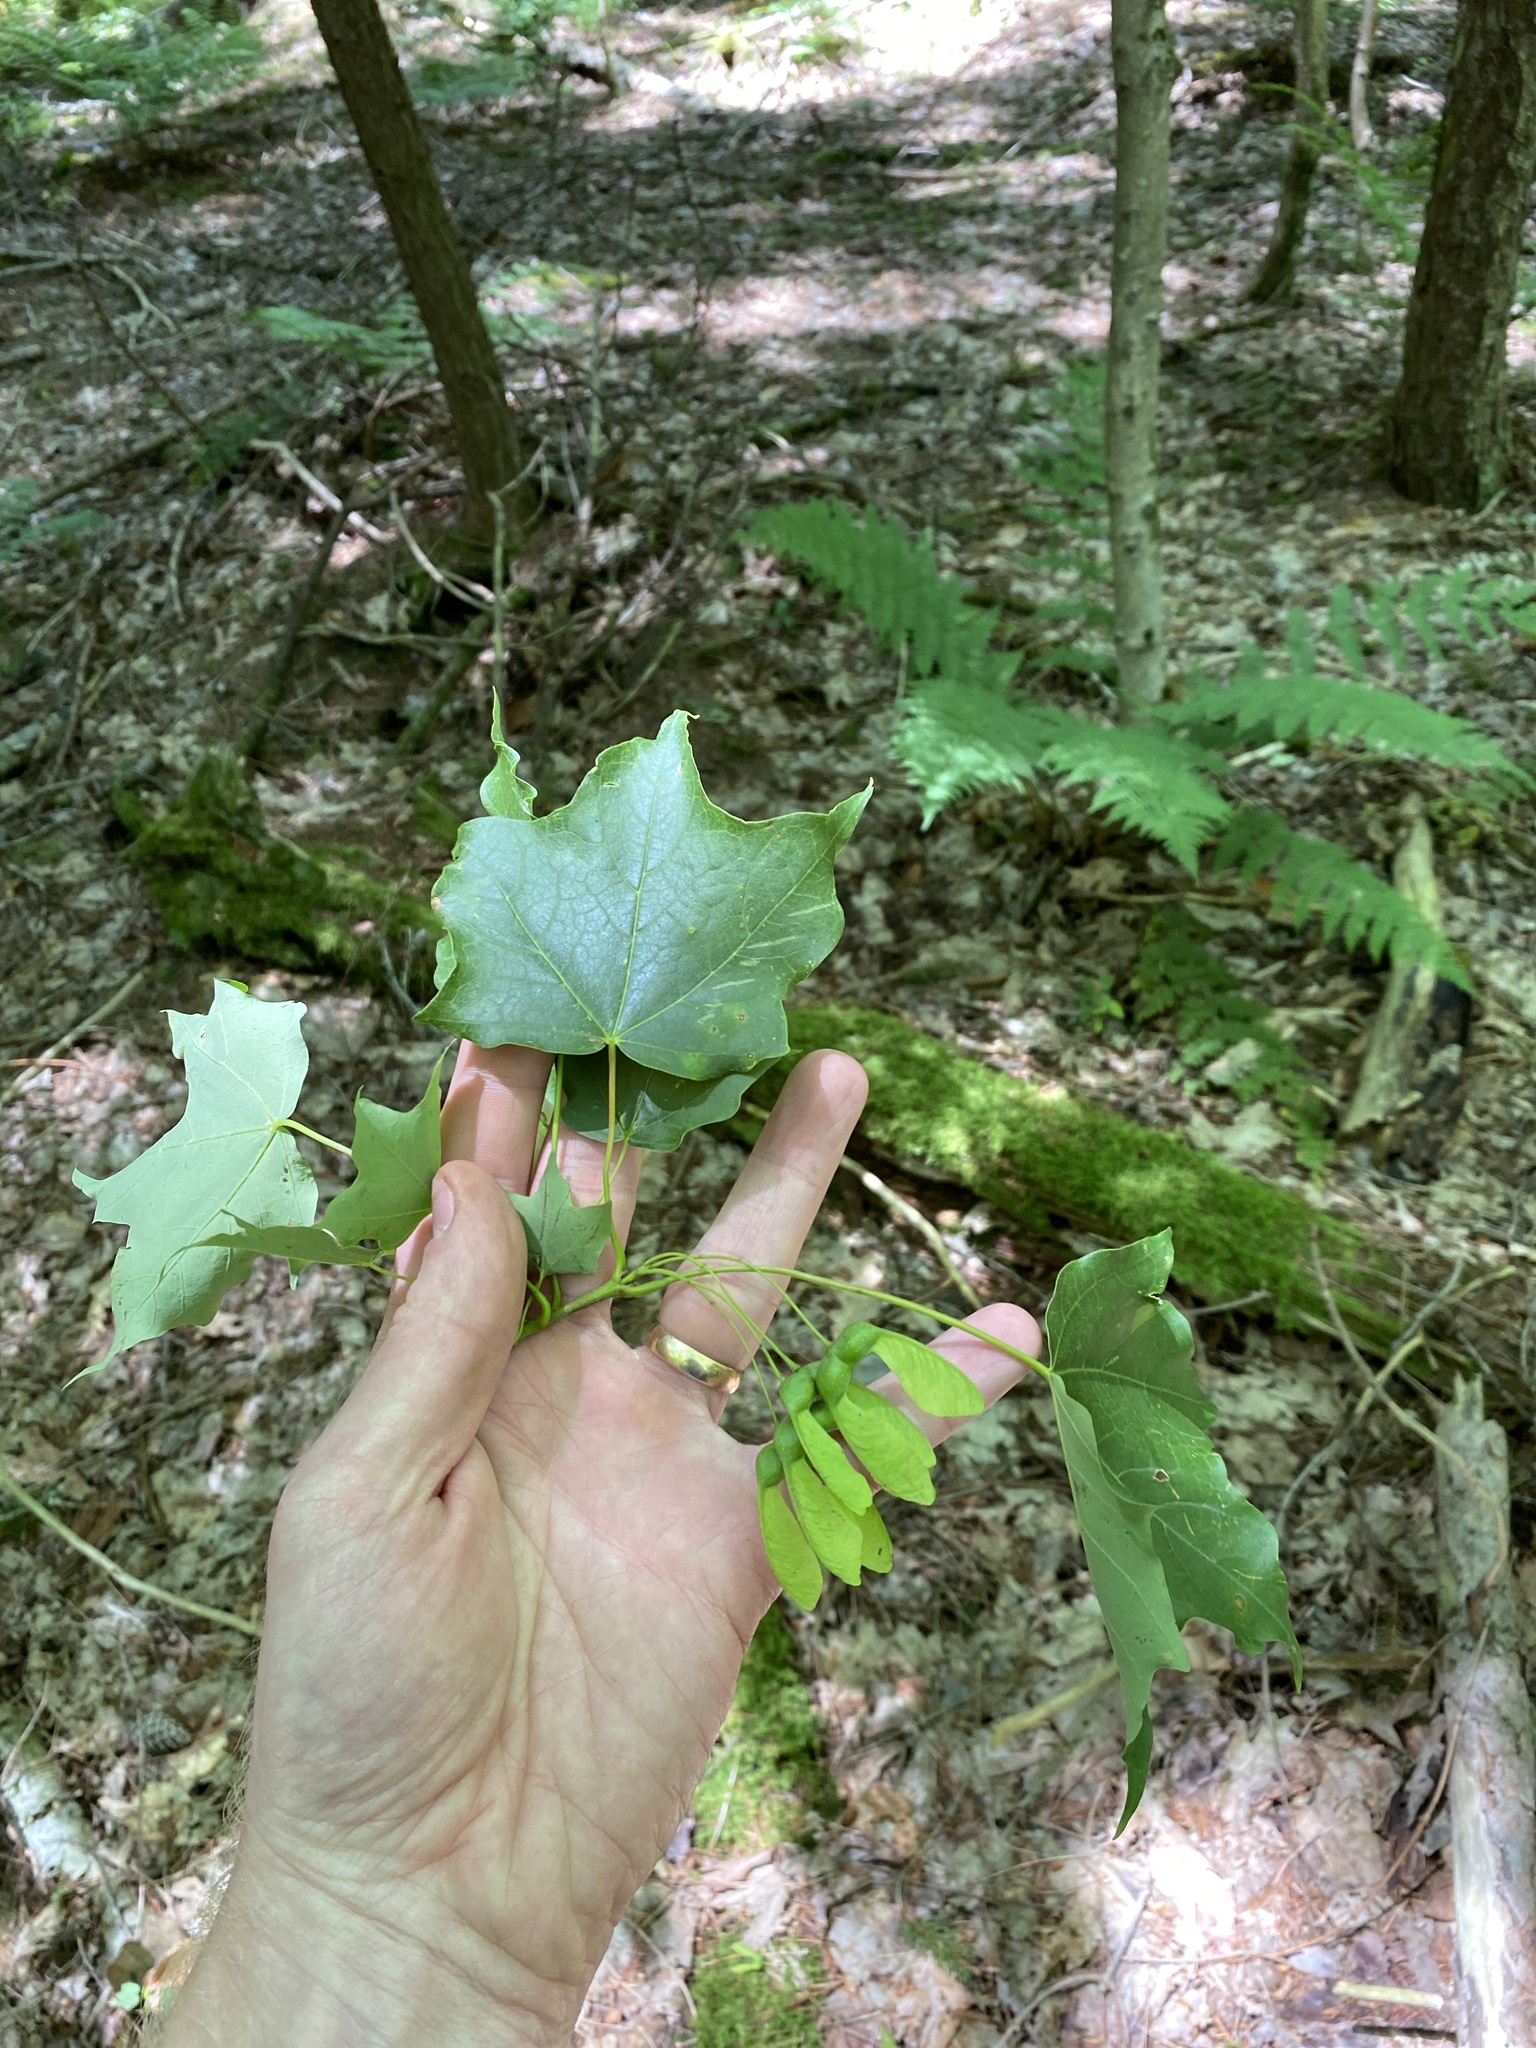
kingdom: Plantae
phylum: Tracheophyta
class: Magnoliopsida
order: Sapindales
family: Sapindaceae
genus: Acer
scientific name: Acer nigrum
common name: Black maple
